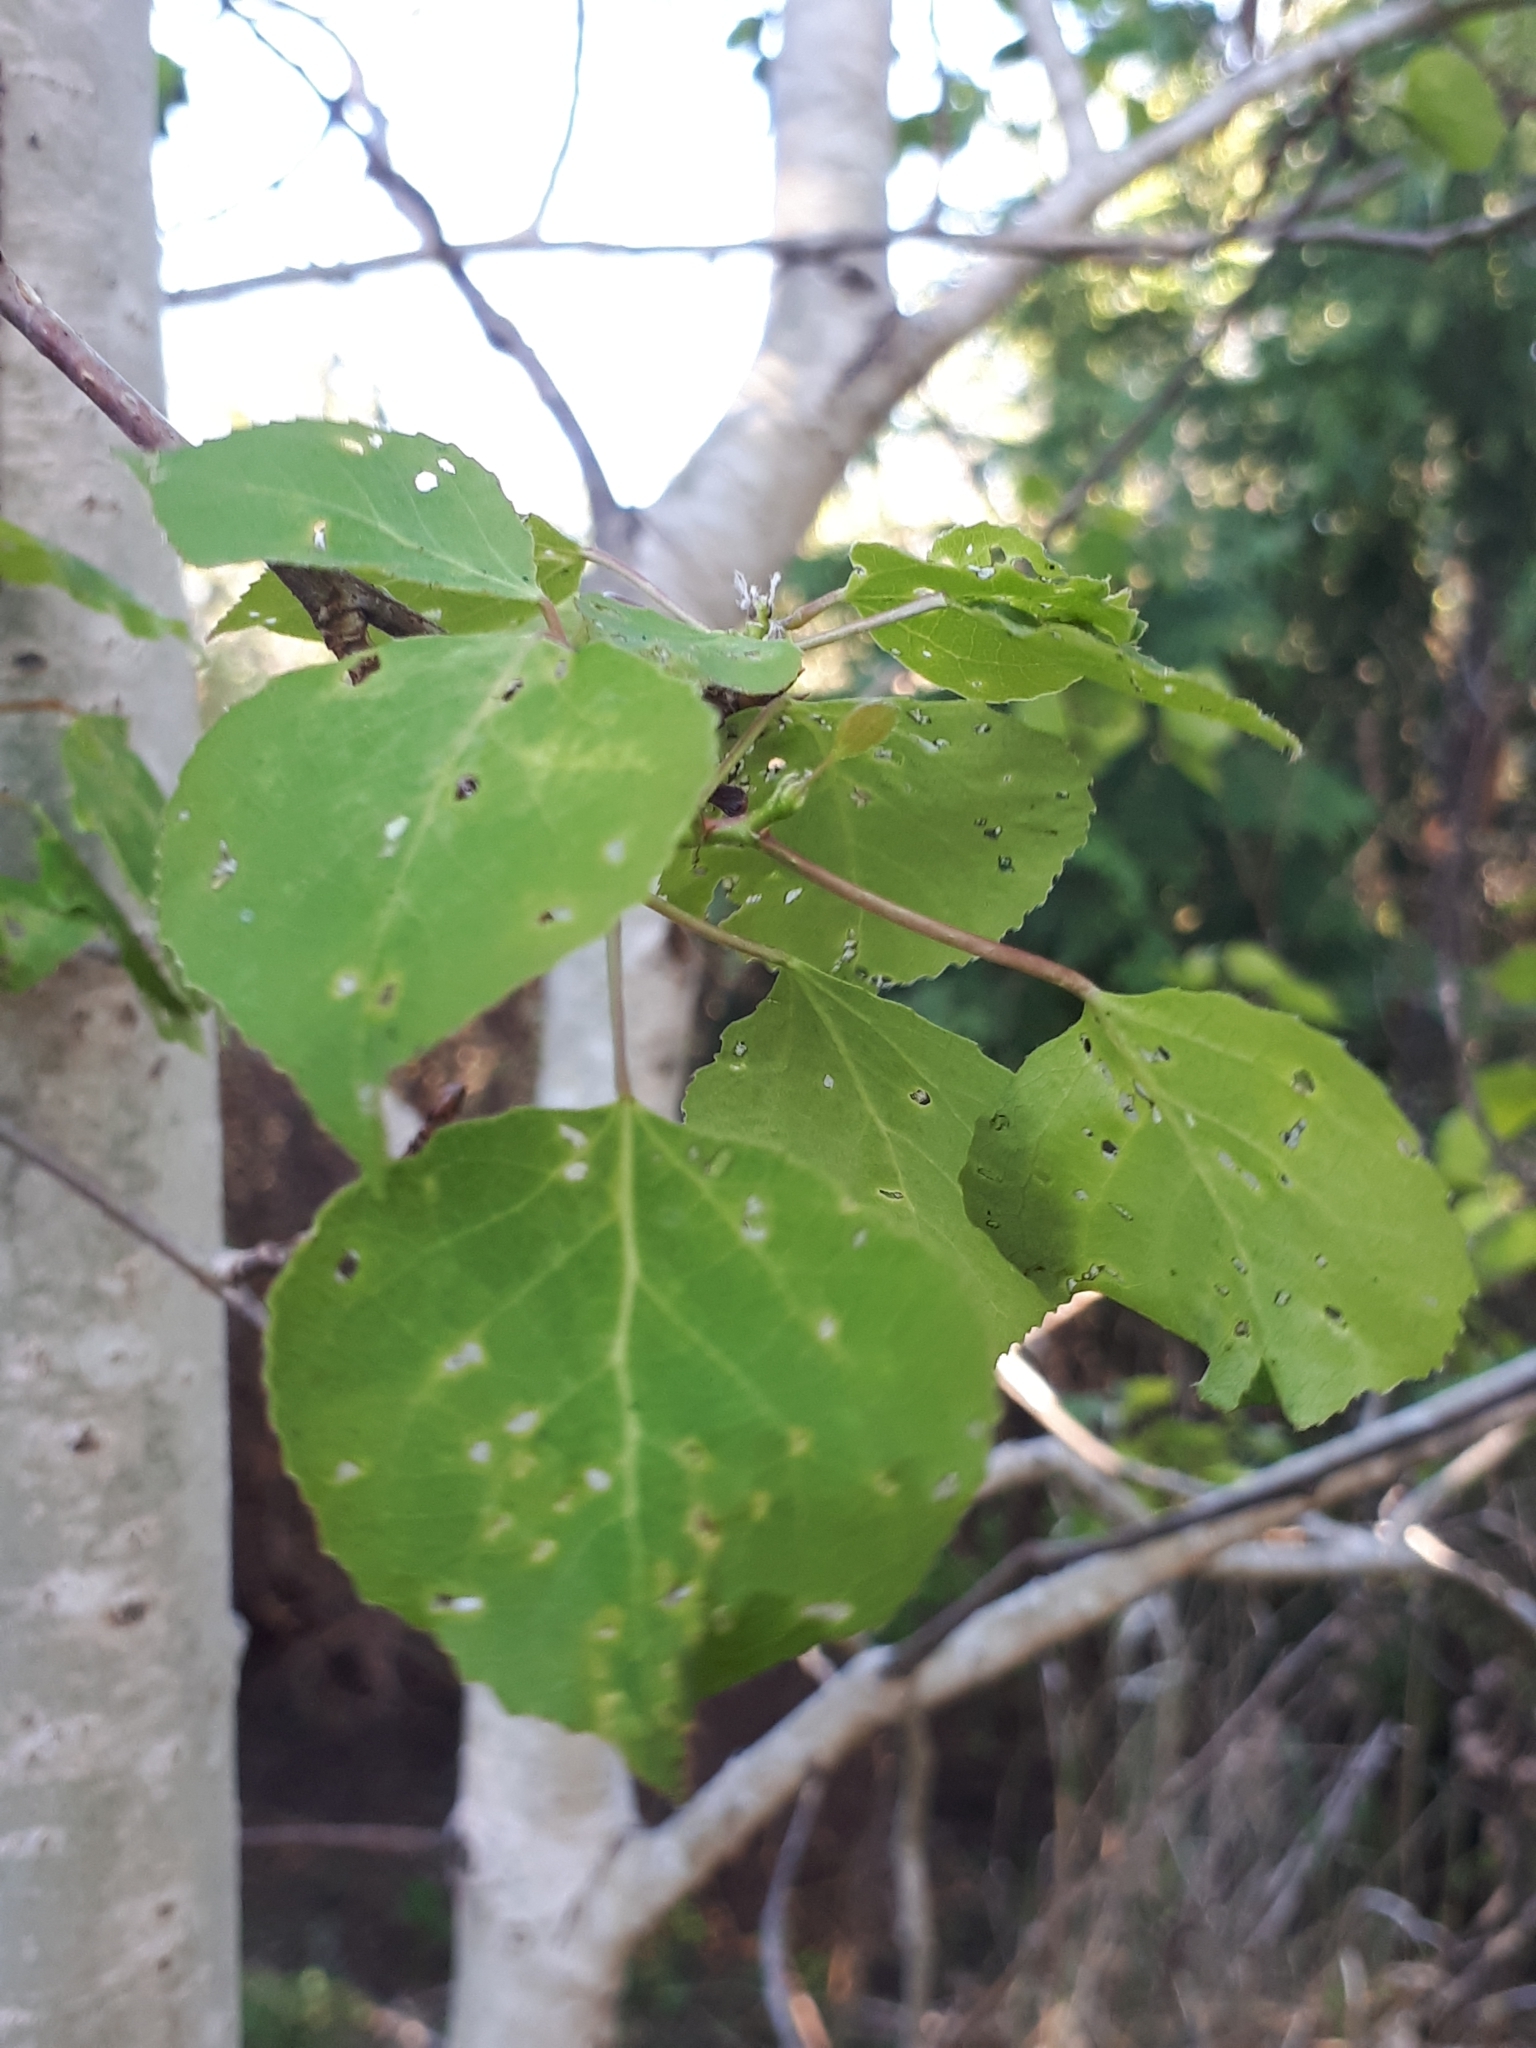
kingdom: Plantae
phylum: Tracheophyta
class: Magnoliopsida
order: Malpighiales
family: Salicaceae
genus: Populus
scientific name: Populus tremuloides
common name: Quaking aspen
